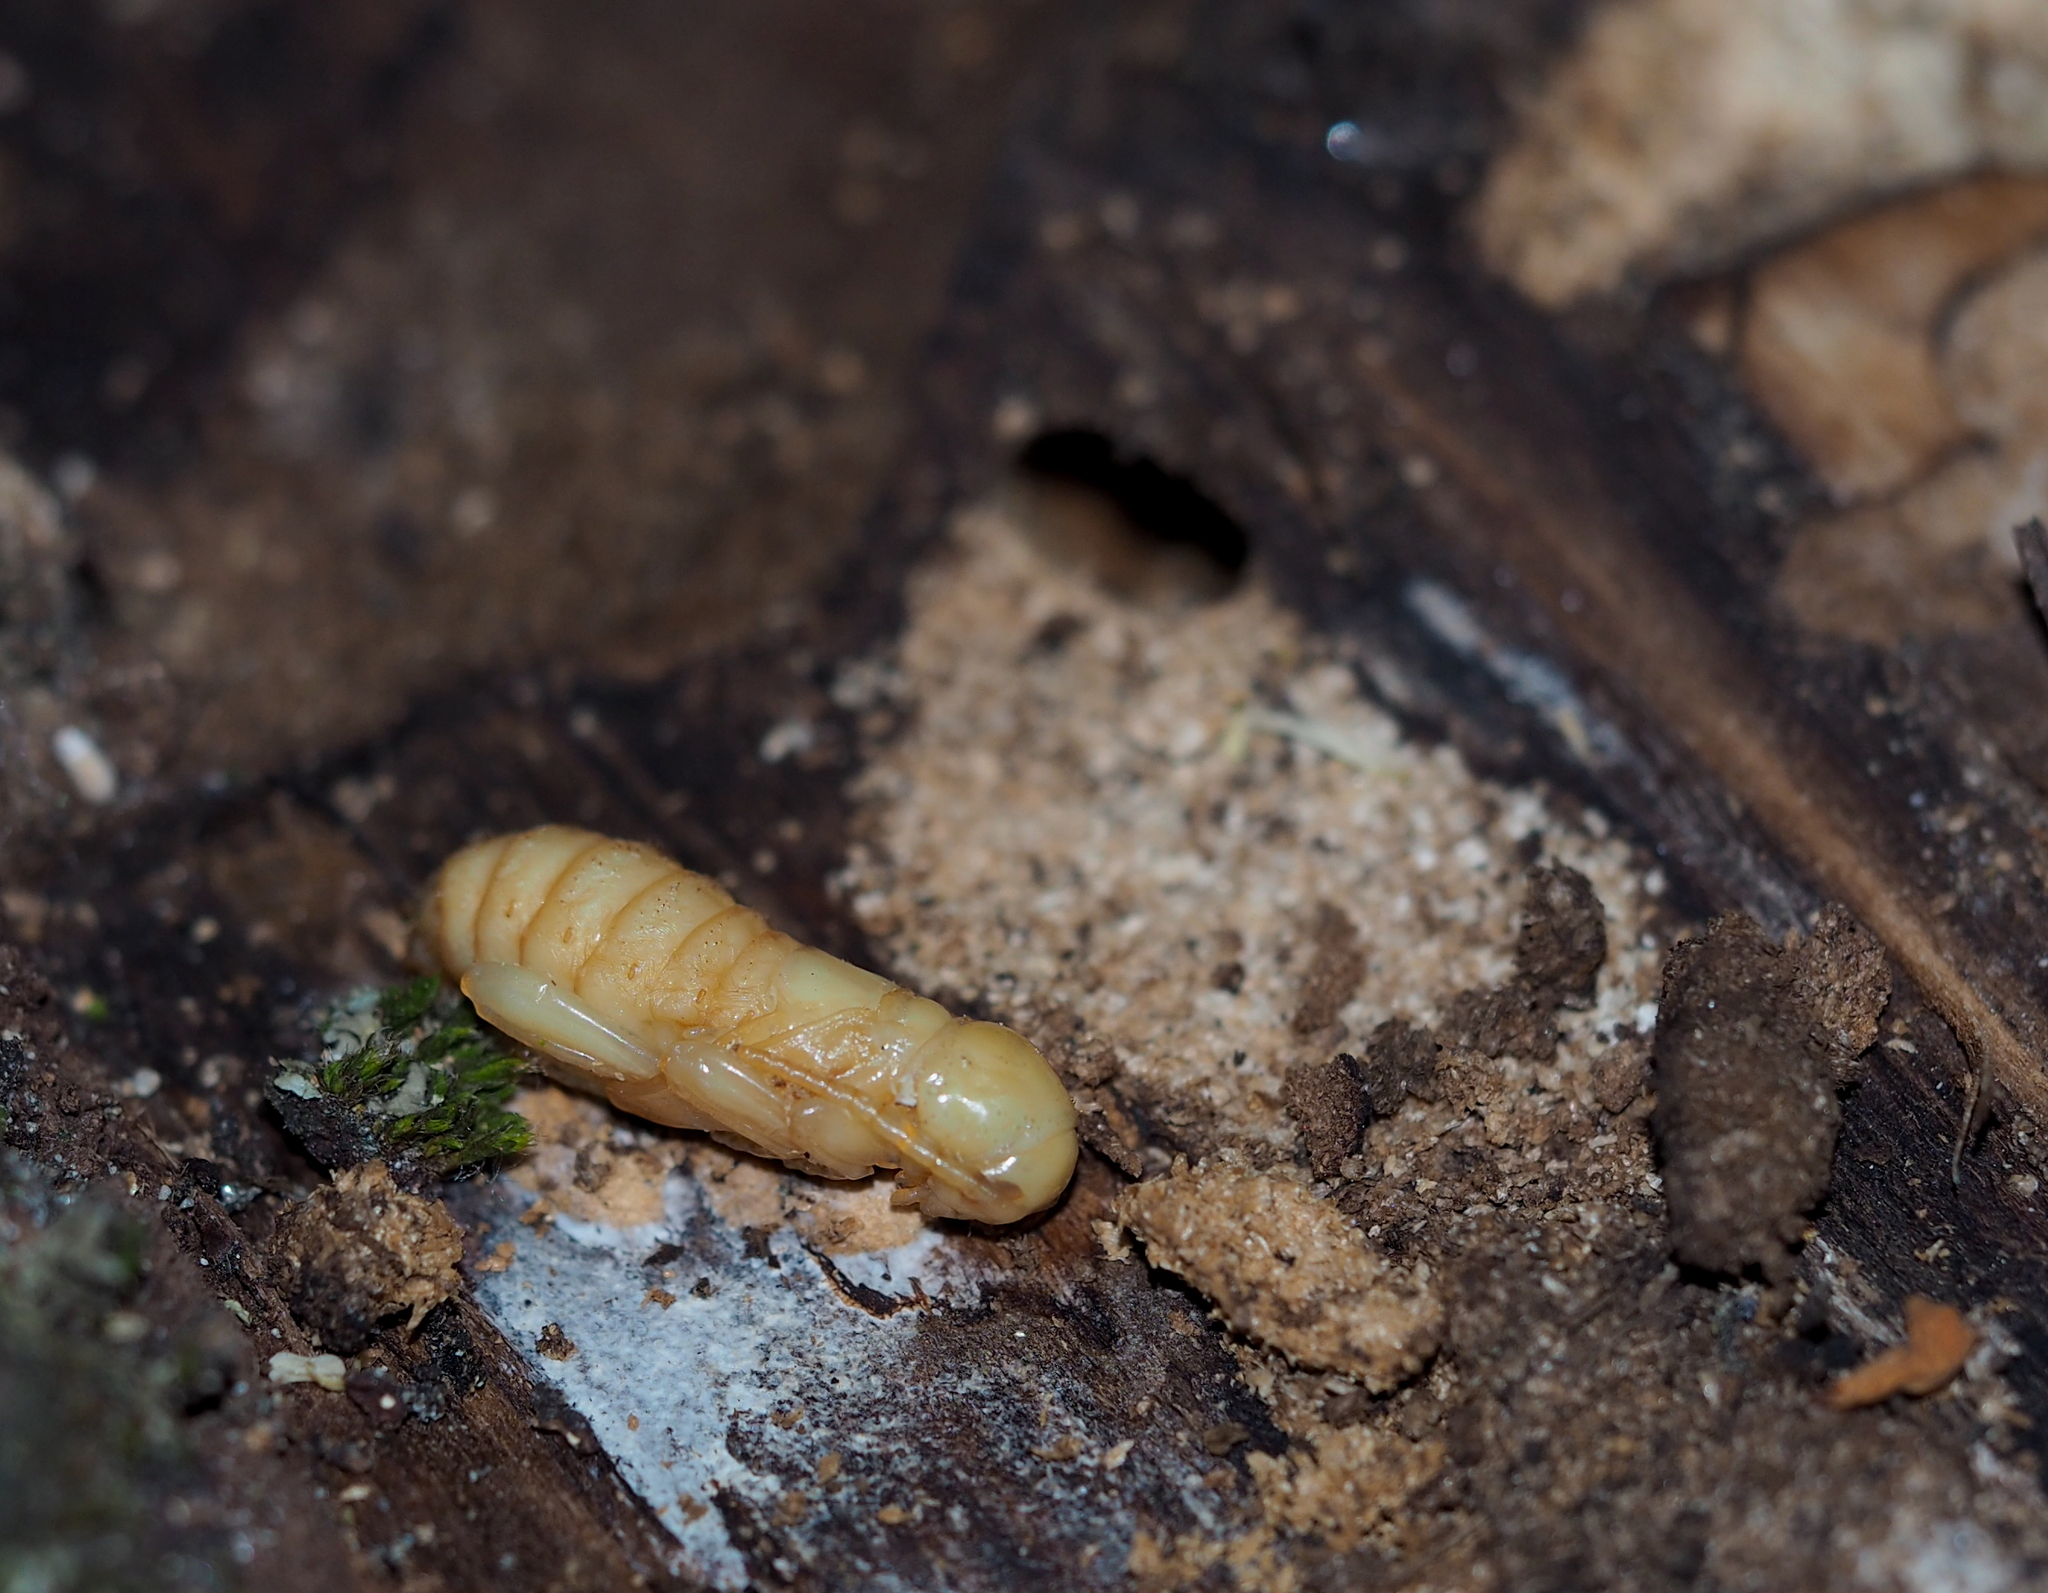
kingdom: Animalia
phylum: Arthropoda
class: Insecta
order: Coleoptera
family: Cerambycidae
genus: Xylotrechus
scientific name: Xylotrechus rusticus
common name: Grey tiger long-horned beetle
